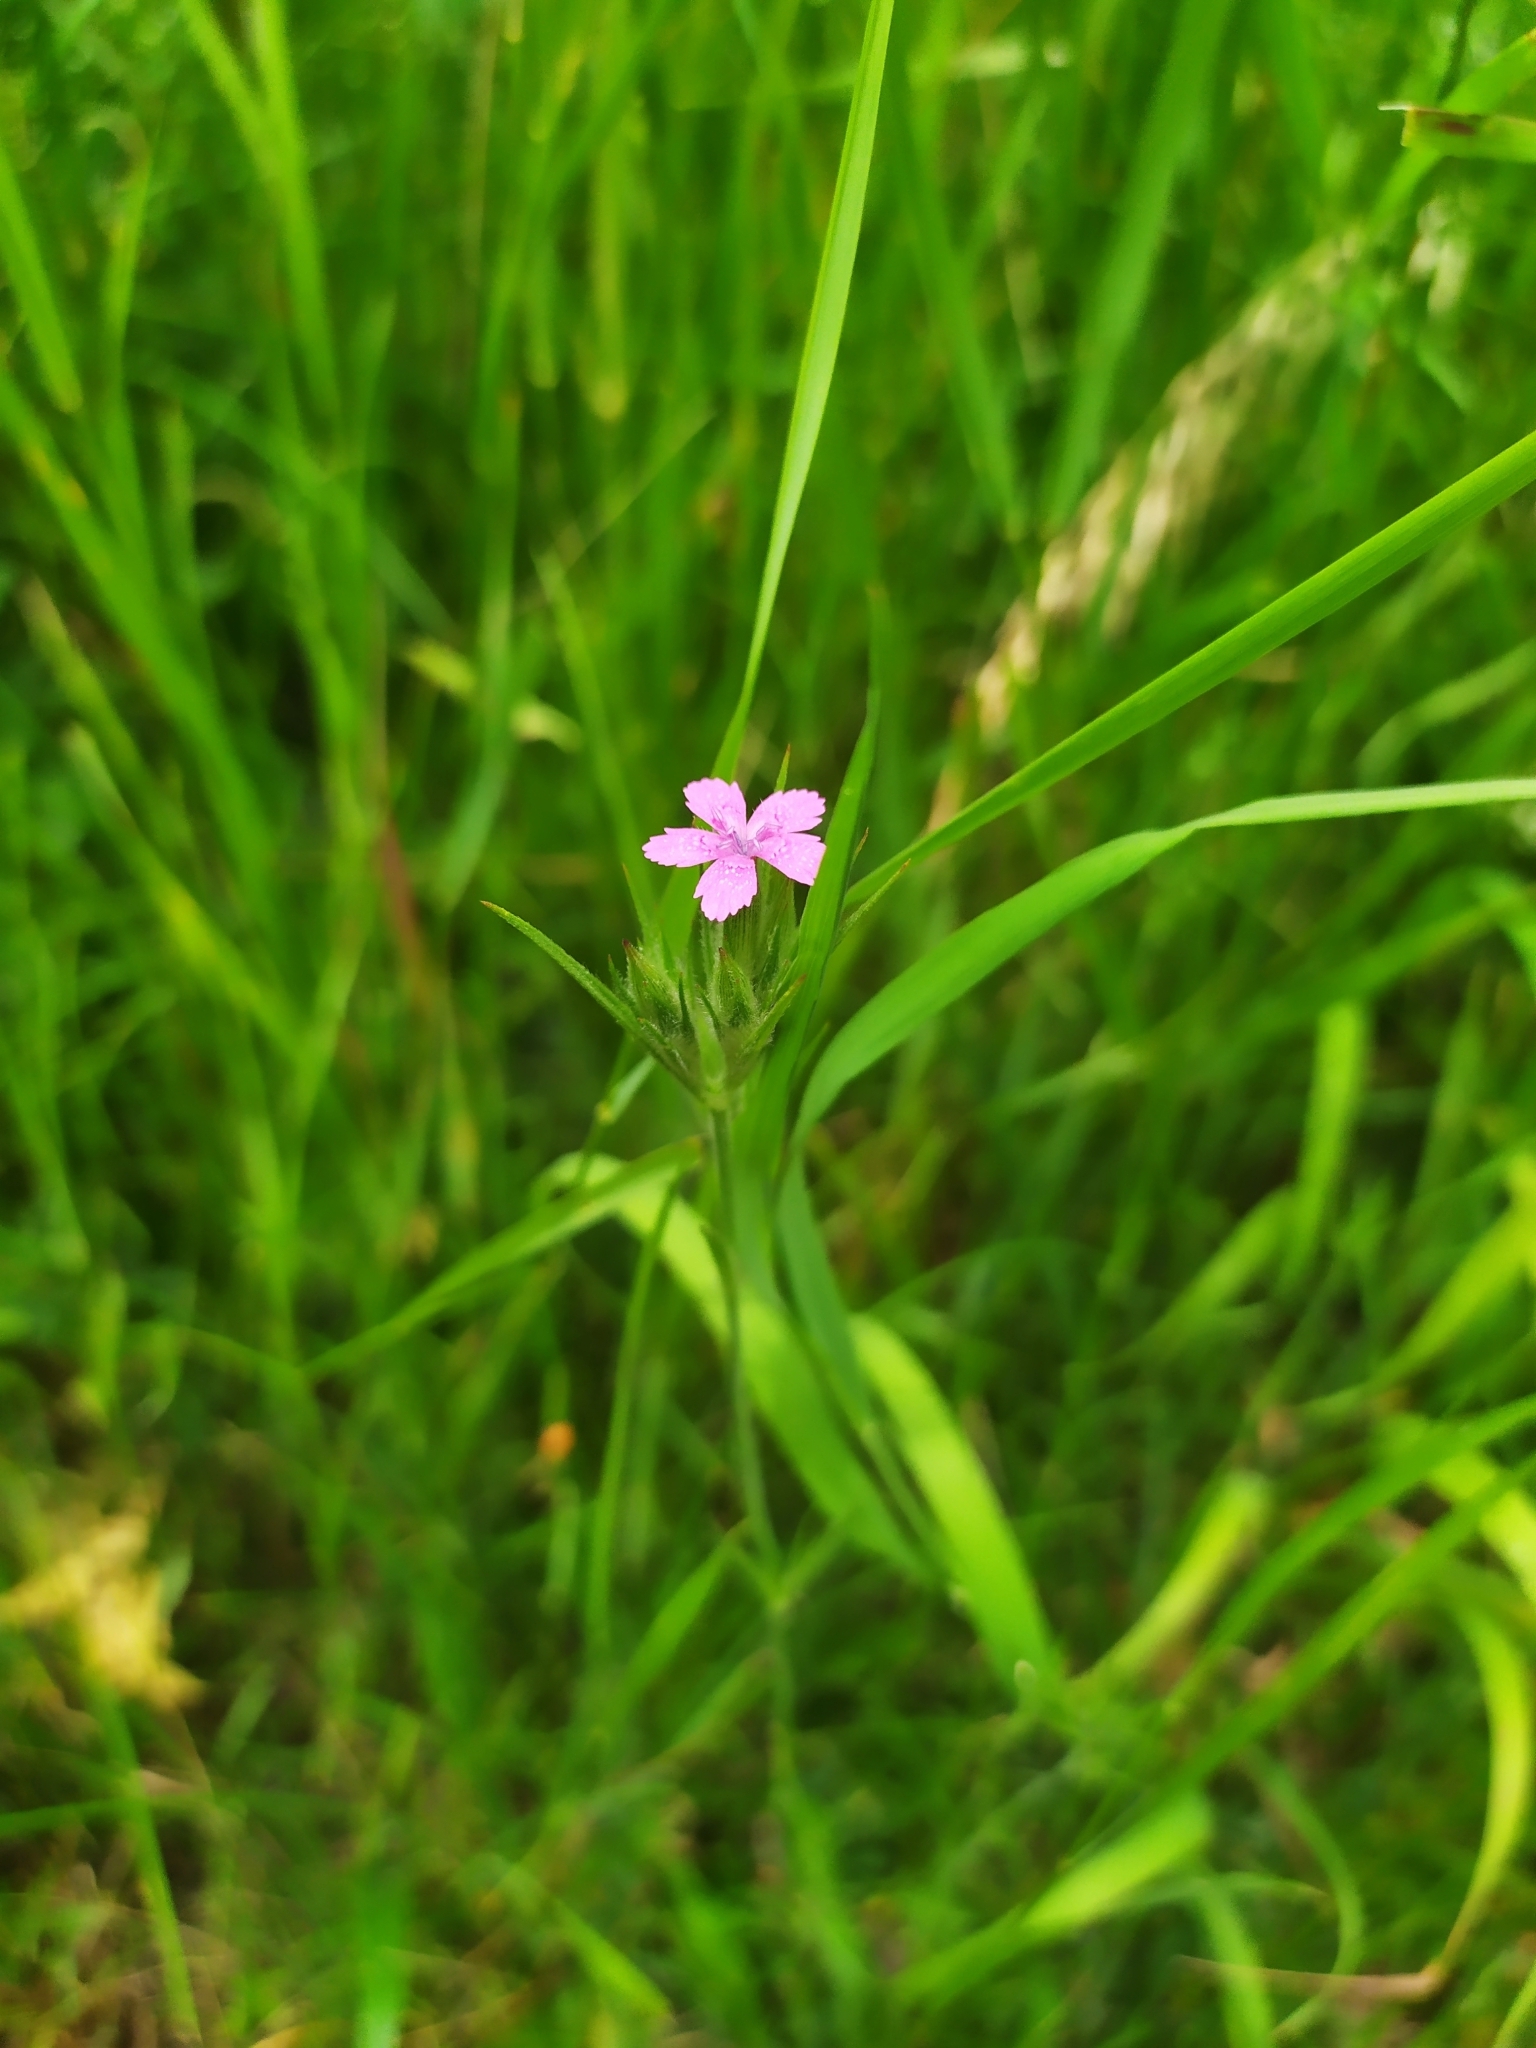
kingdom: Plantae
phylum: Tracheophyta
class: Magnoliopsida
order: Caryophyllales
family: Caryophyllaceae
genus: Dianthus
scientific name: Dianthus armeria
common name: Deptford pink
